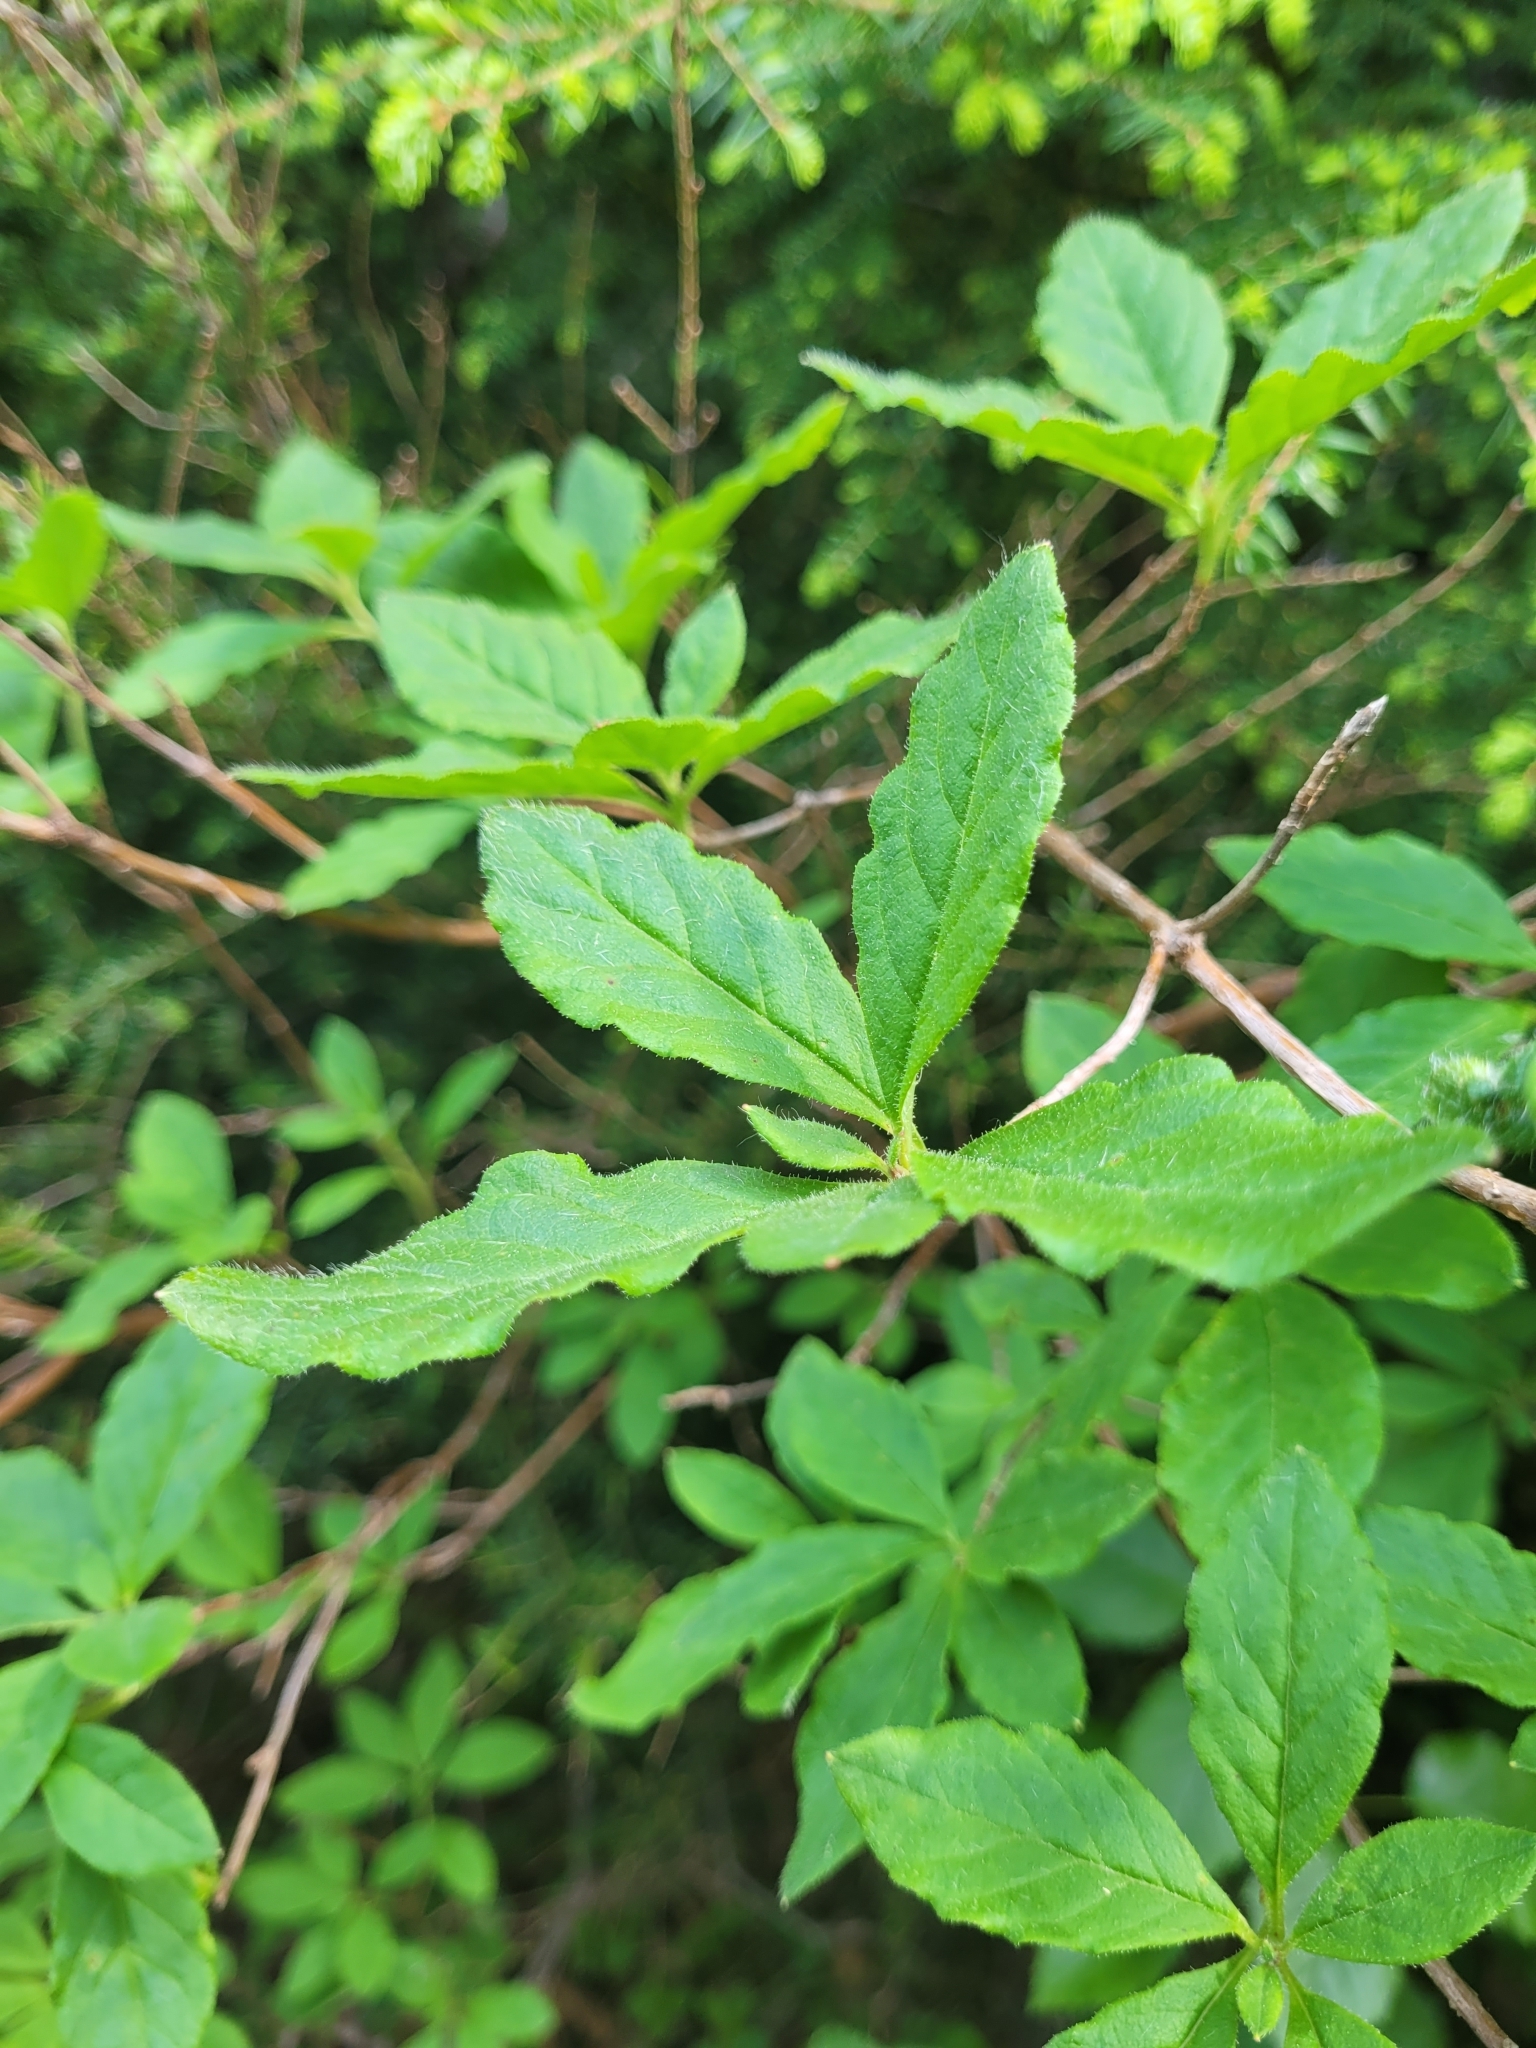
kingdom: Plantae
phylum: Tracheophyta
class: Magnoliopsida
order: Ericales
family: Ericaceae
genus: Rhododendron
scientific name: Rhododendron menziesii
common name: Pacific menziesia
